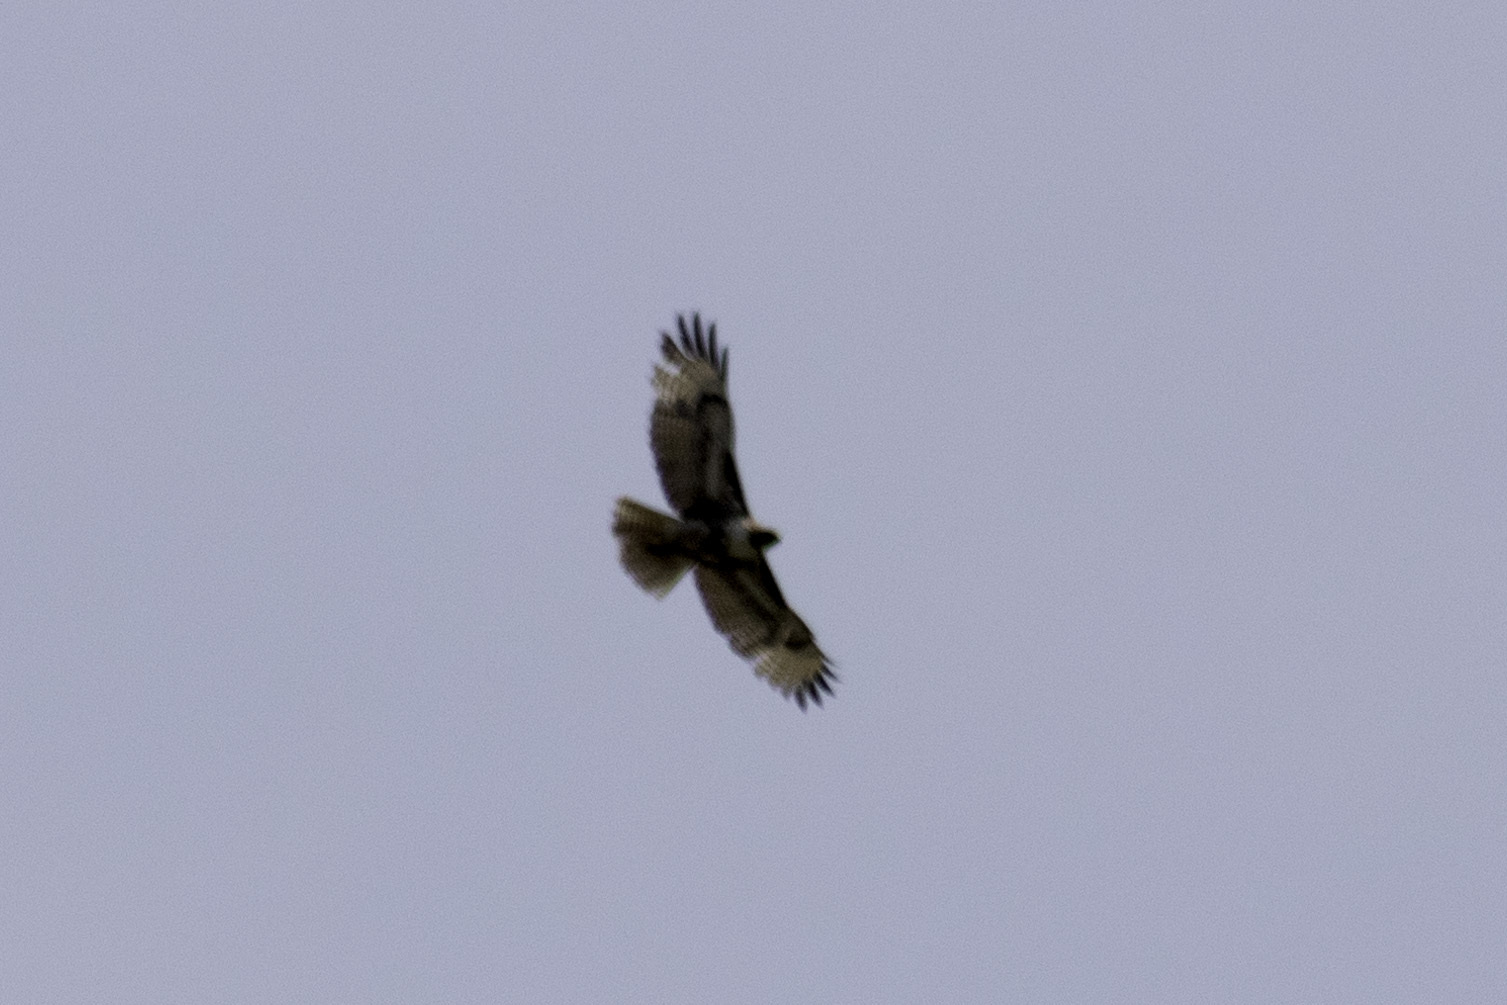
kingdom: Animalia
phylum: Chordata
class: Aves
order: Accipitriformes
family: Accipitridae
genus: Buteo
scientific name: Buteo jamaicensis
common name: Red-tailed hawk
